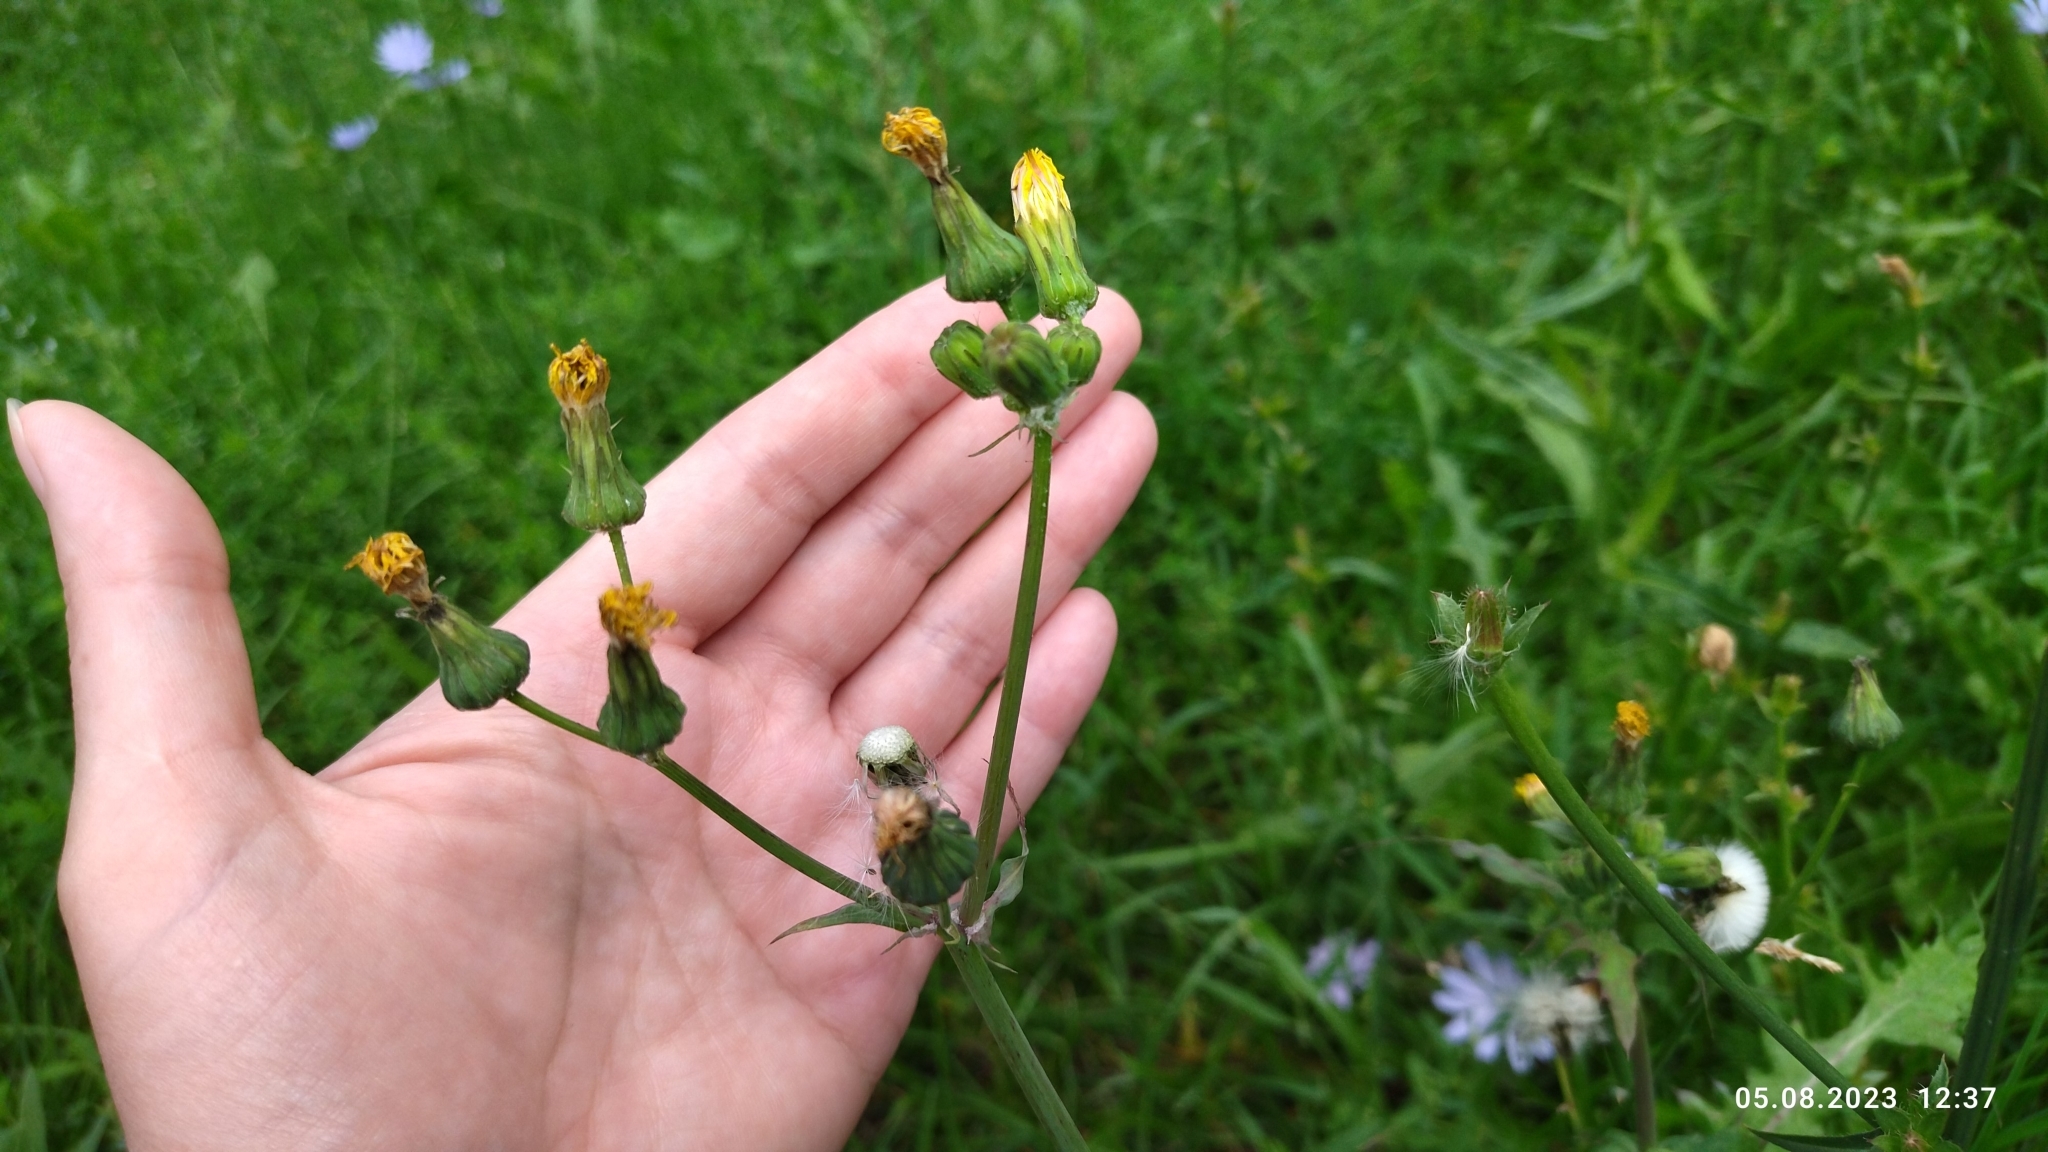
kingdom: Plantae
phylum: Tracheophyta
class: Magnoliopsida
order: Asterales
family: Asteraceae
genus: Sonchus
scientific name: Sonchus oleraceus
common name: Common sowthistle
